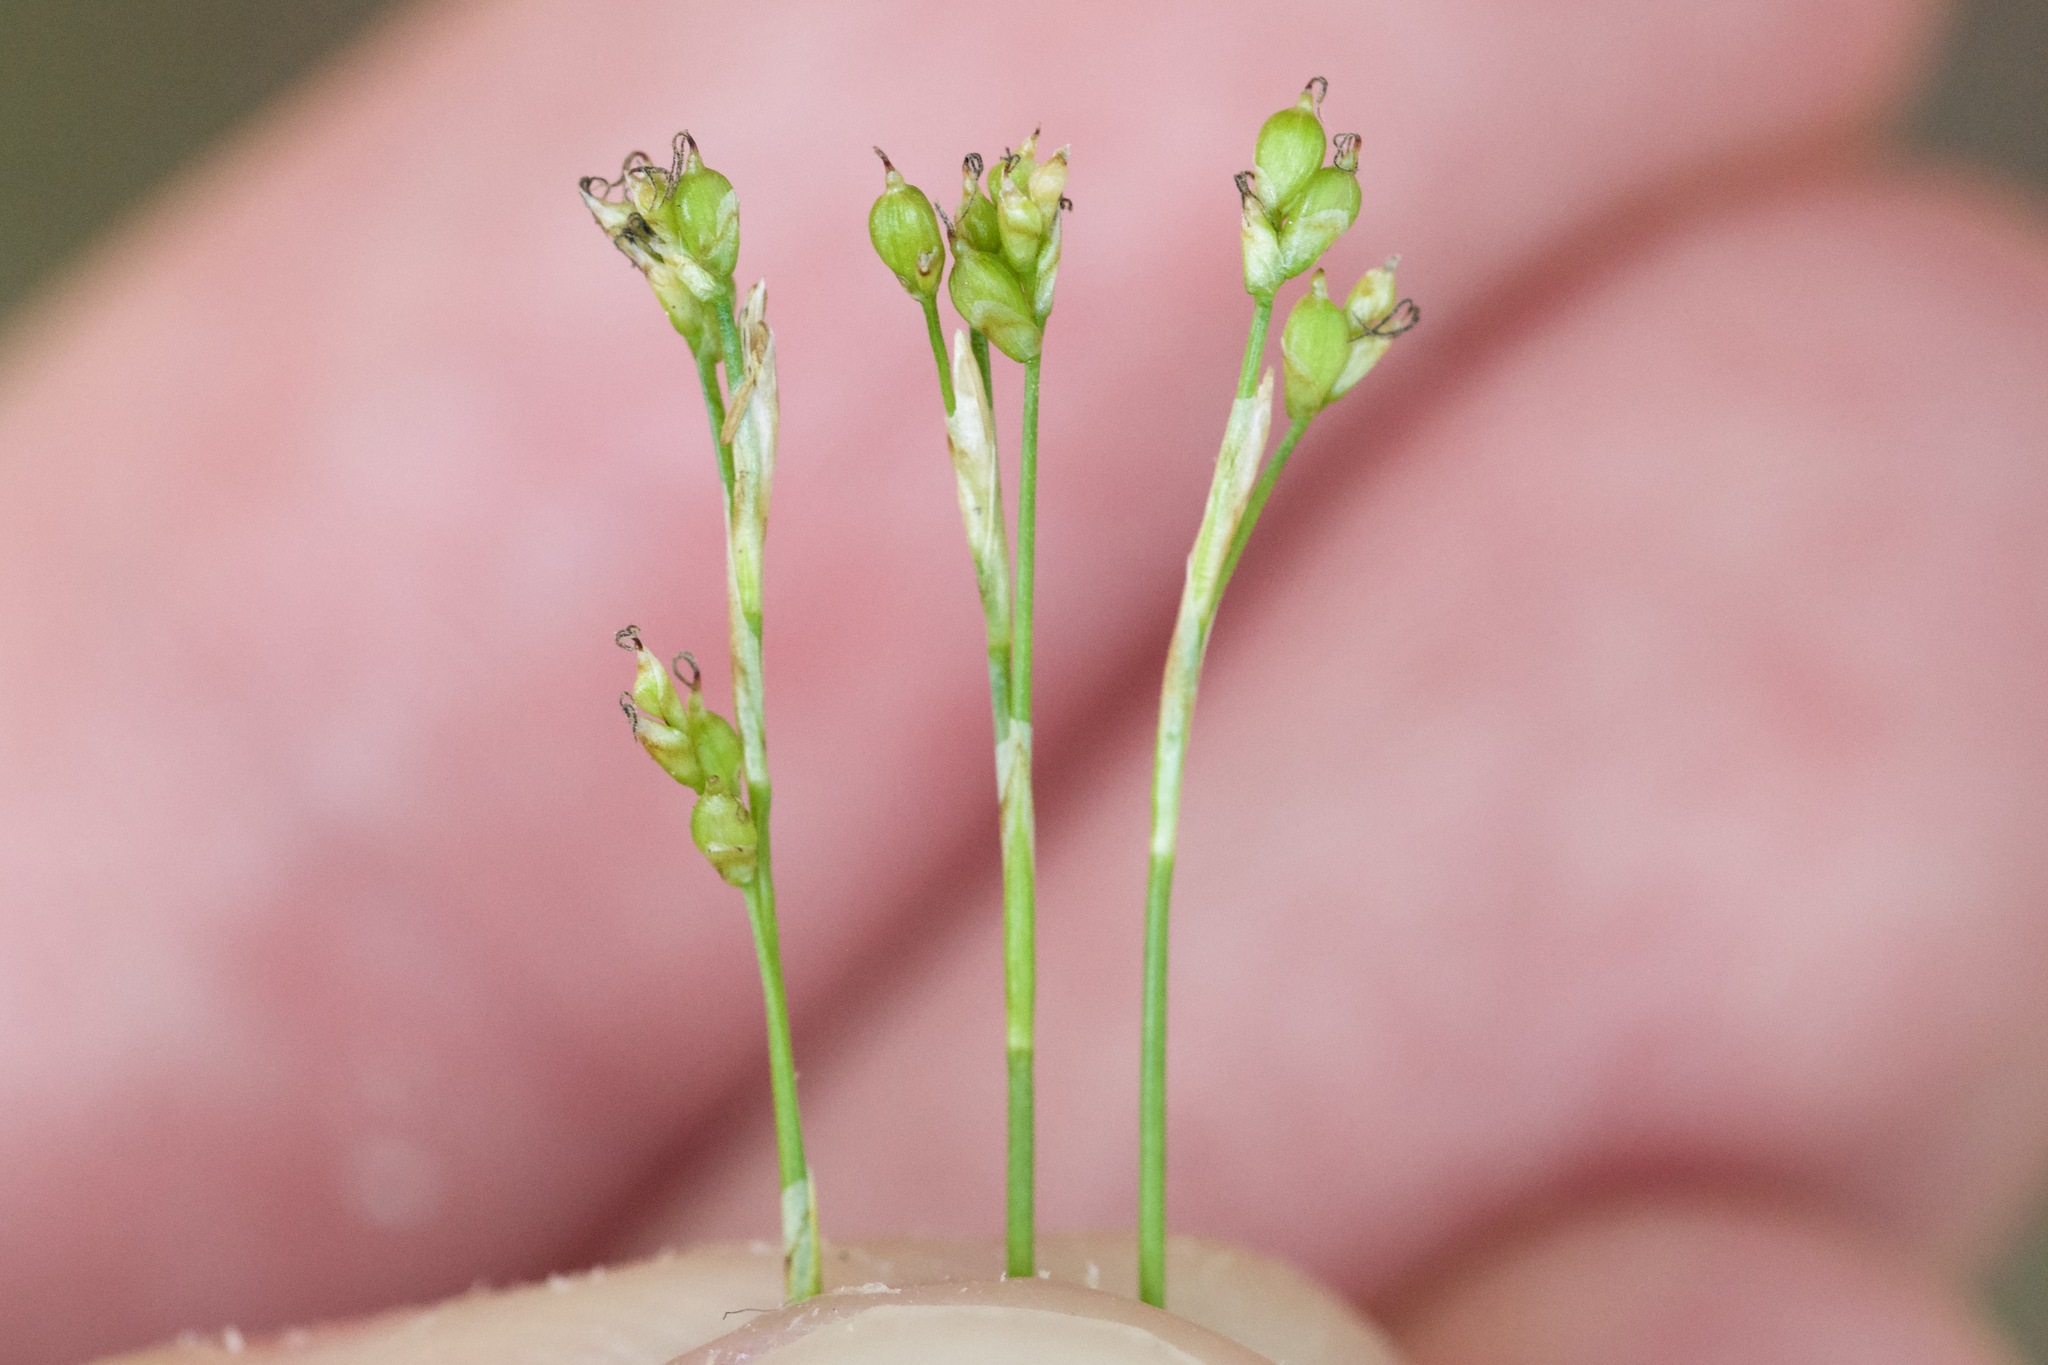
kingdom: Plantae
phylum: Tracheophyta
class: Liliopsida
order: Poales
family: Cyperaceae
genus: Carex
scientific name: Carex eburnea
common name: Bristle-leaved sedge
